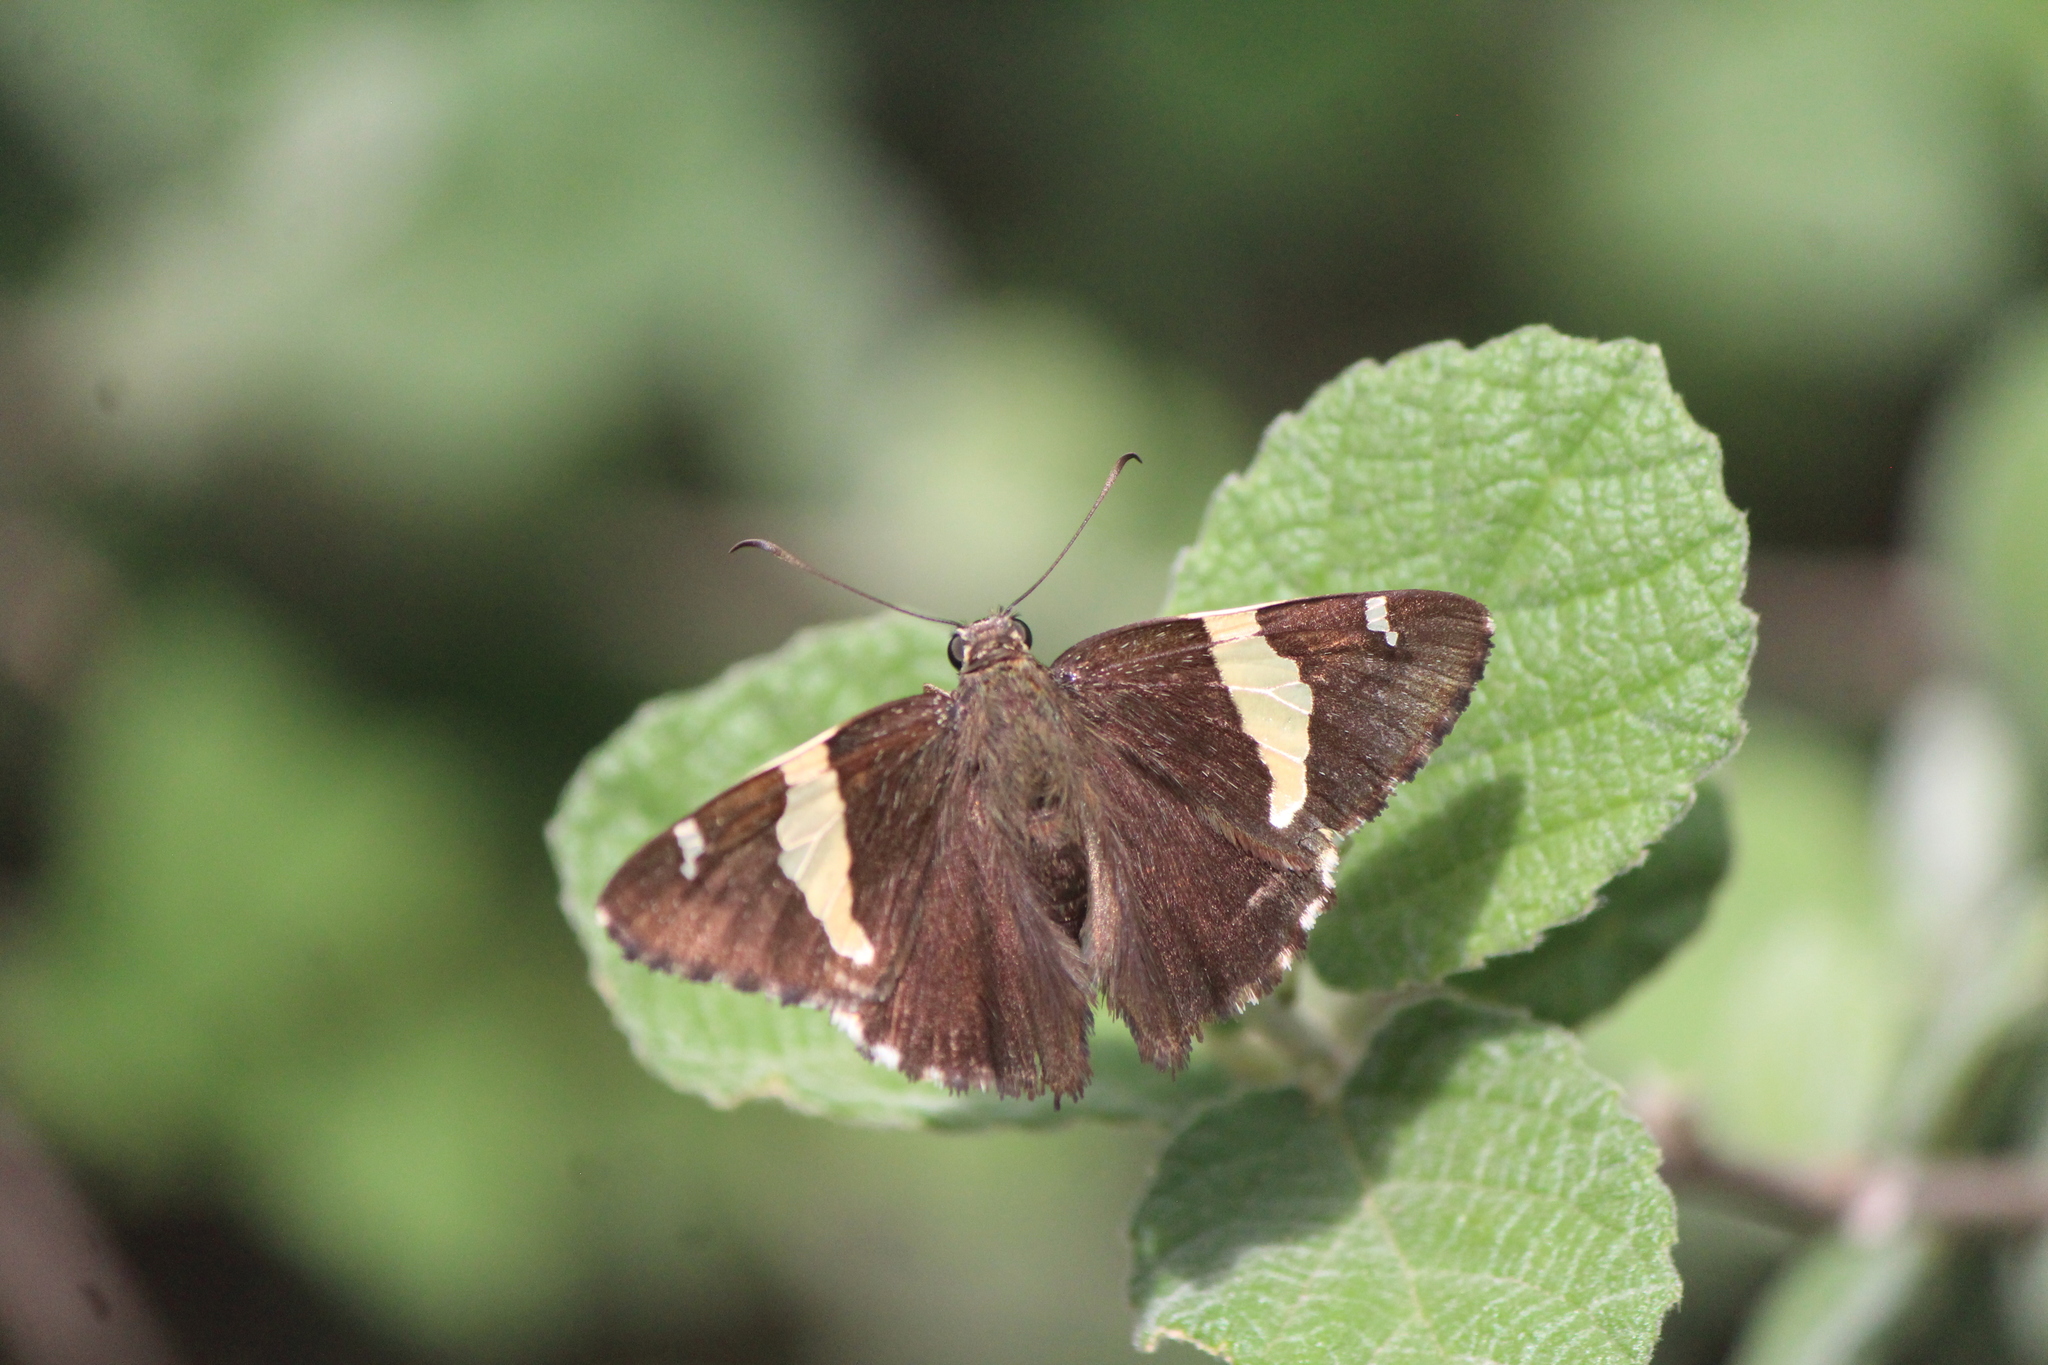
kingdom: Animalia
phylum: Arthropoda
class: Arachnida
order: Scorpiones
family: Bothriuridae
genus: Telegonus
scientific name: Telegonus cellus
